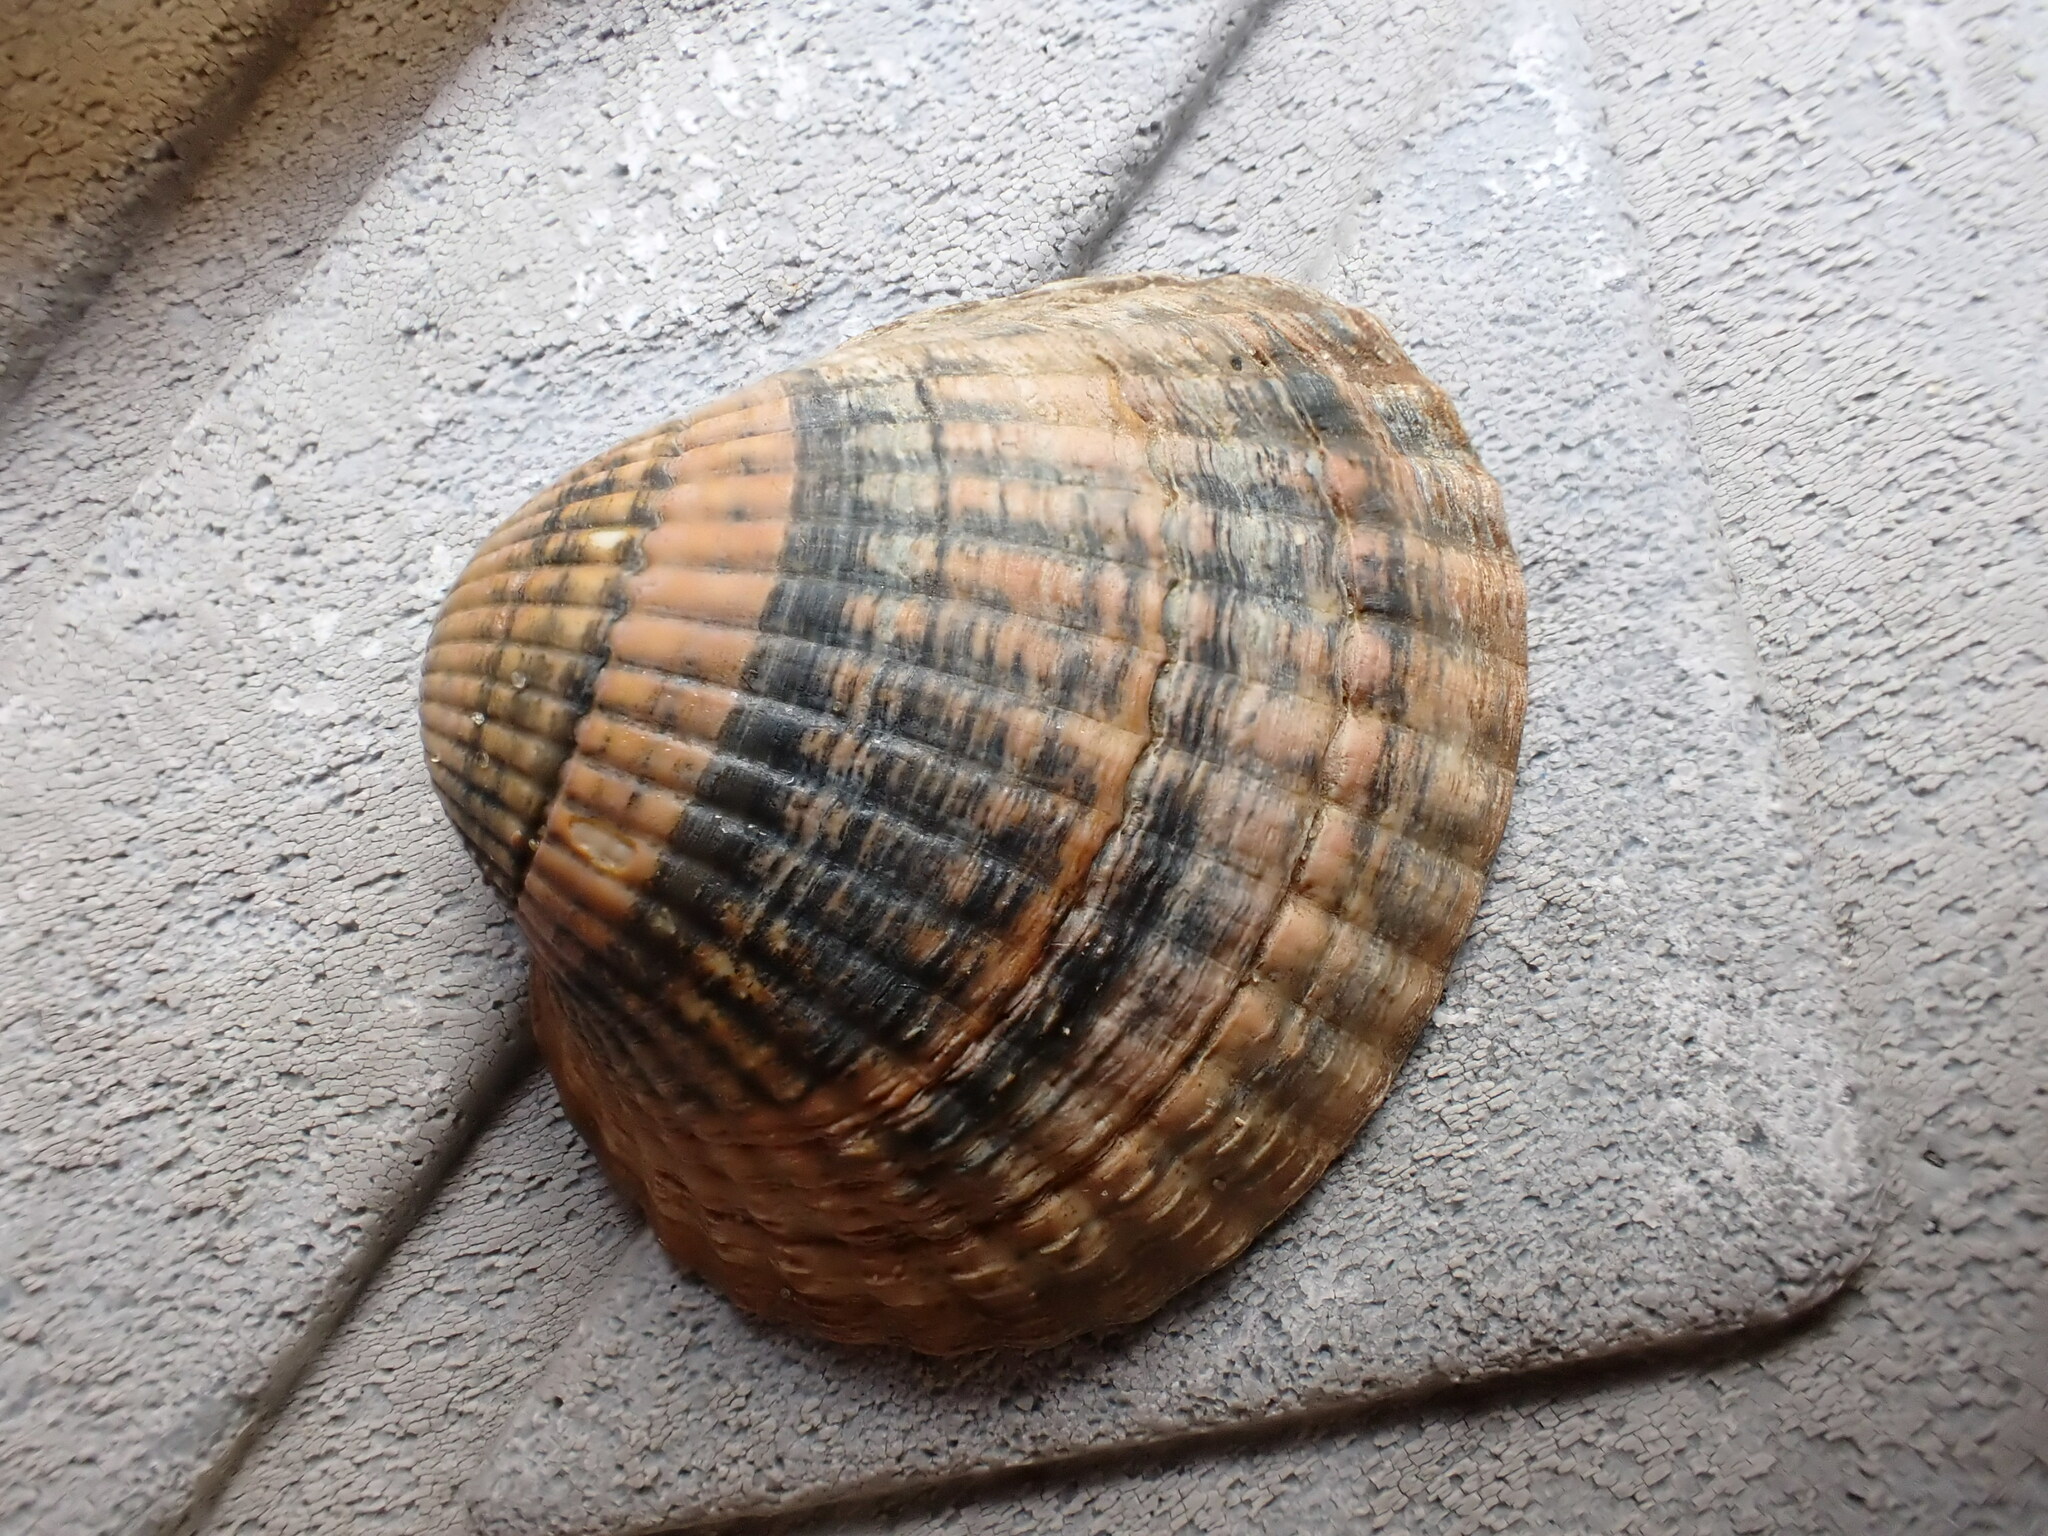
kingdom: Animalia
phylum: Mollusca
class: Bivalvia
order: Cardiida
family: Cardiidae
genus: Cerastoderma
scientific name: Cerastoderma edule
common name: Common cockle
